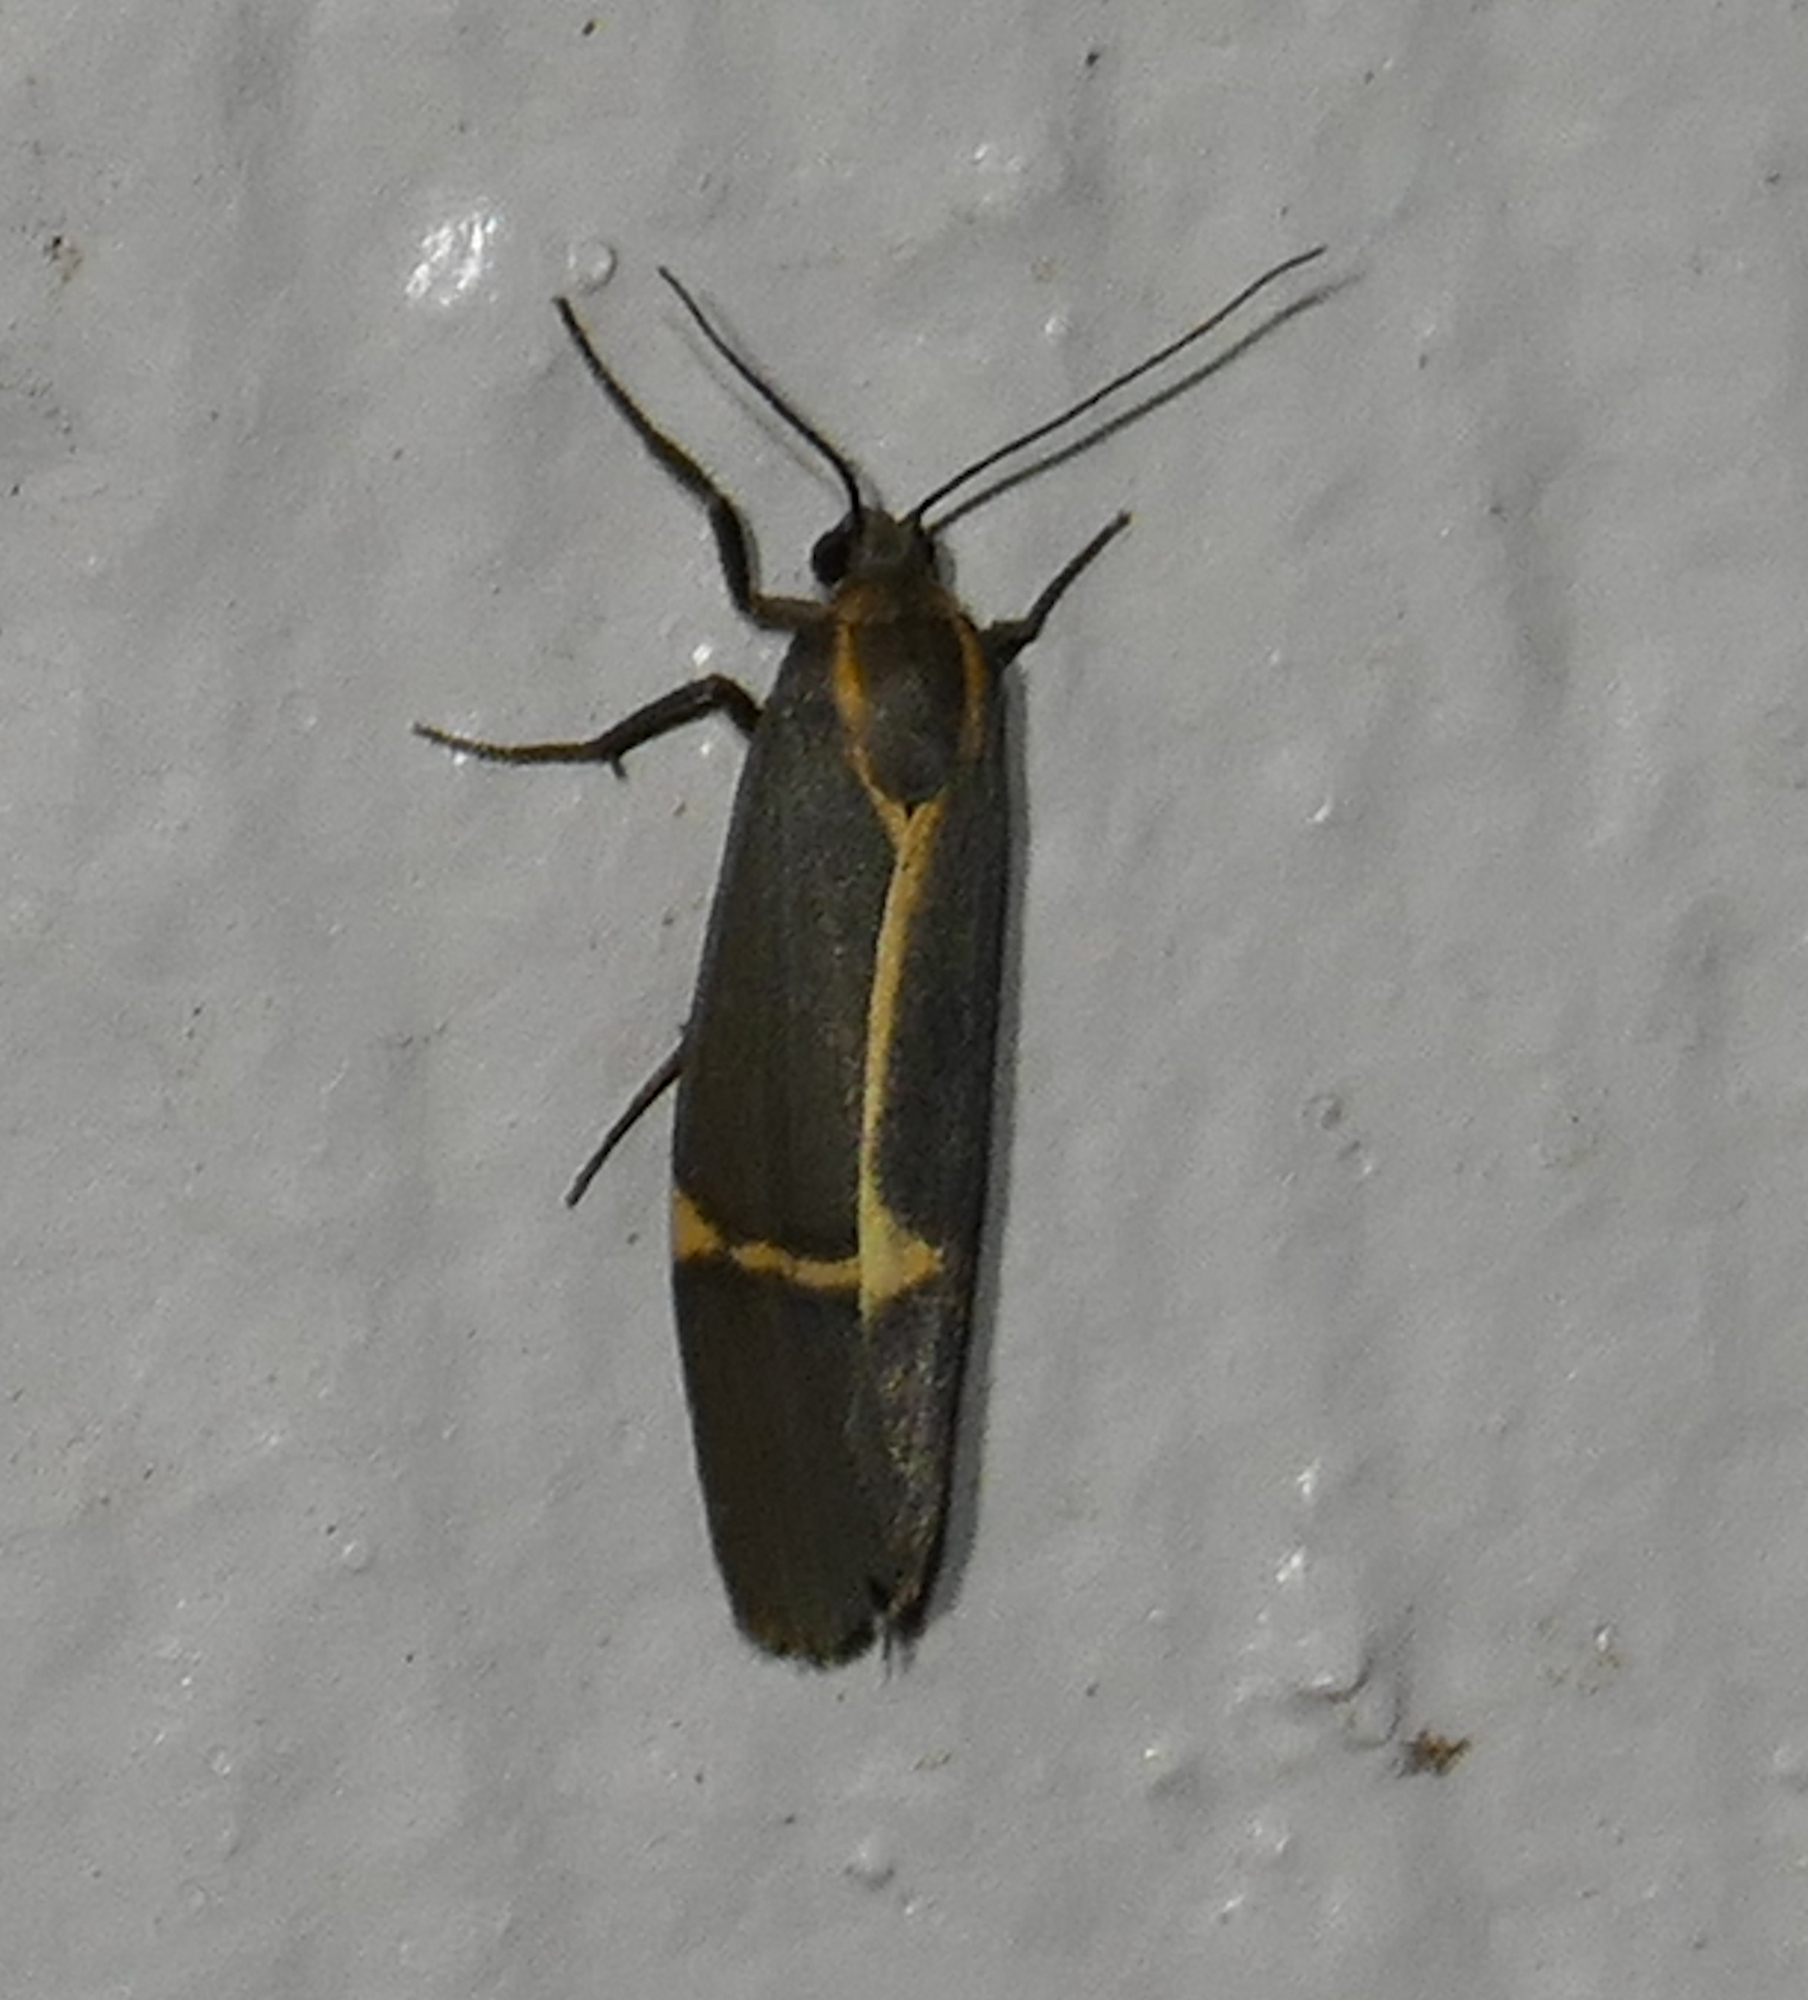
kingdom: Animalia
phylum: Arthropoda
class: Insecta
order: Lepidoptera
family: Erebidae
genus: Cisthene
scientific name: Cisthene barnesii
